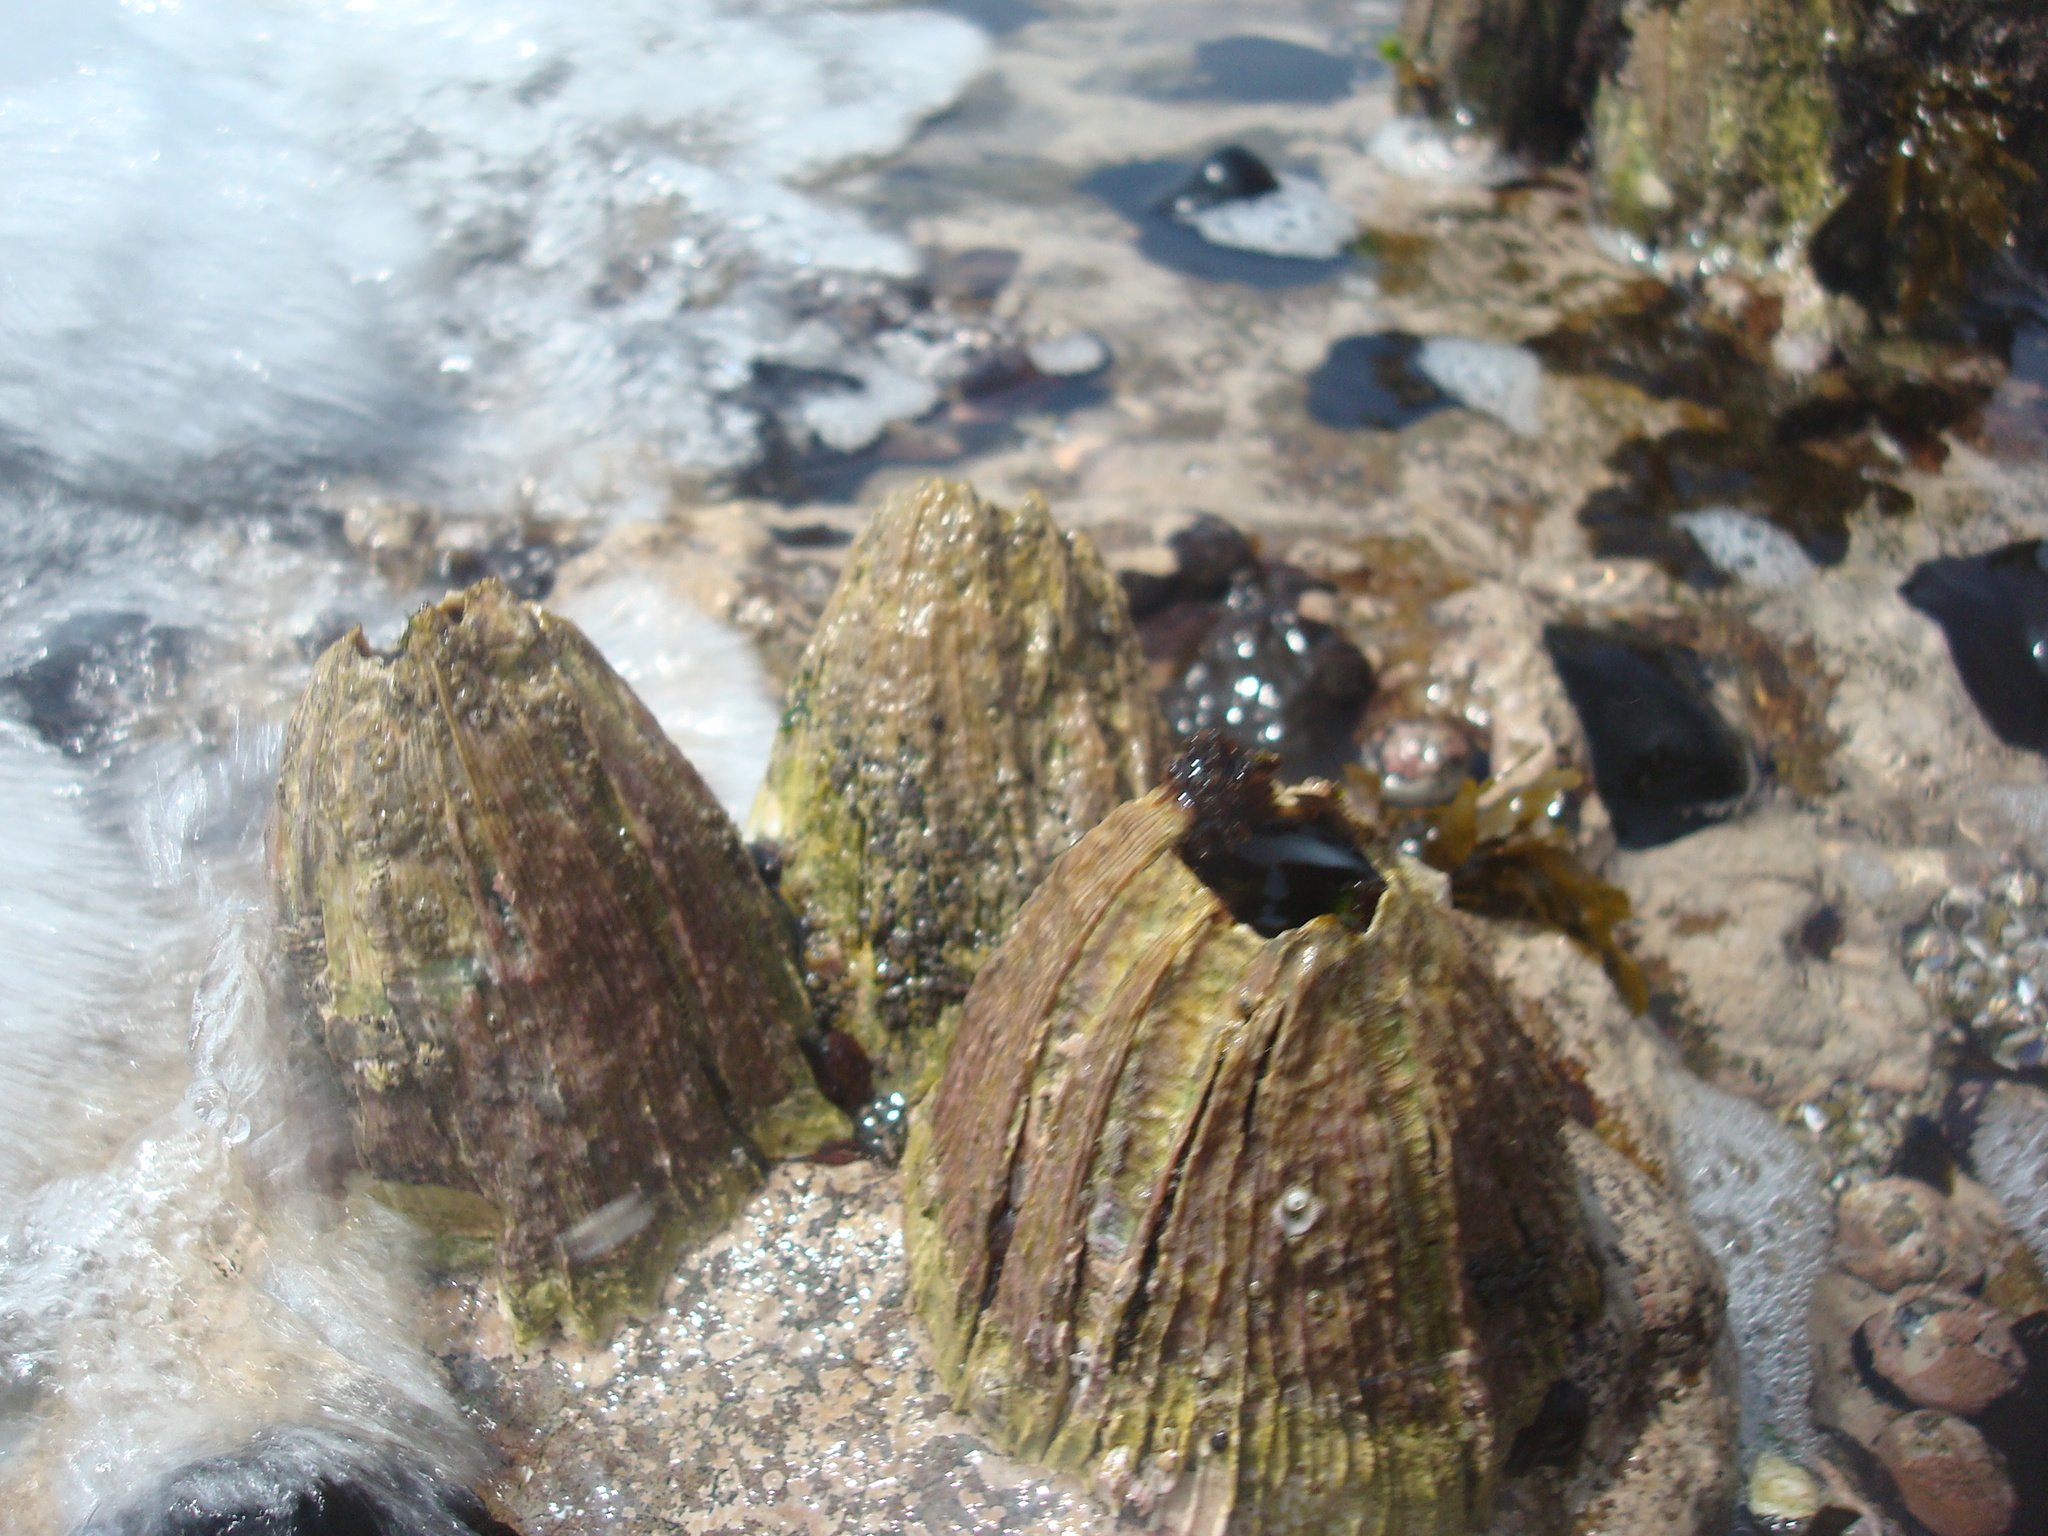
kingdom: Animalia
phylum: Arthropoda
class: Maxillopoda
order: Sessilia
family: Balanidae
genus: Austromegabalanus
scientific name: Austromegabalanus psittacus
